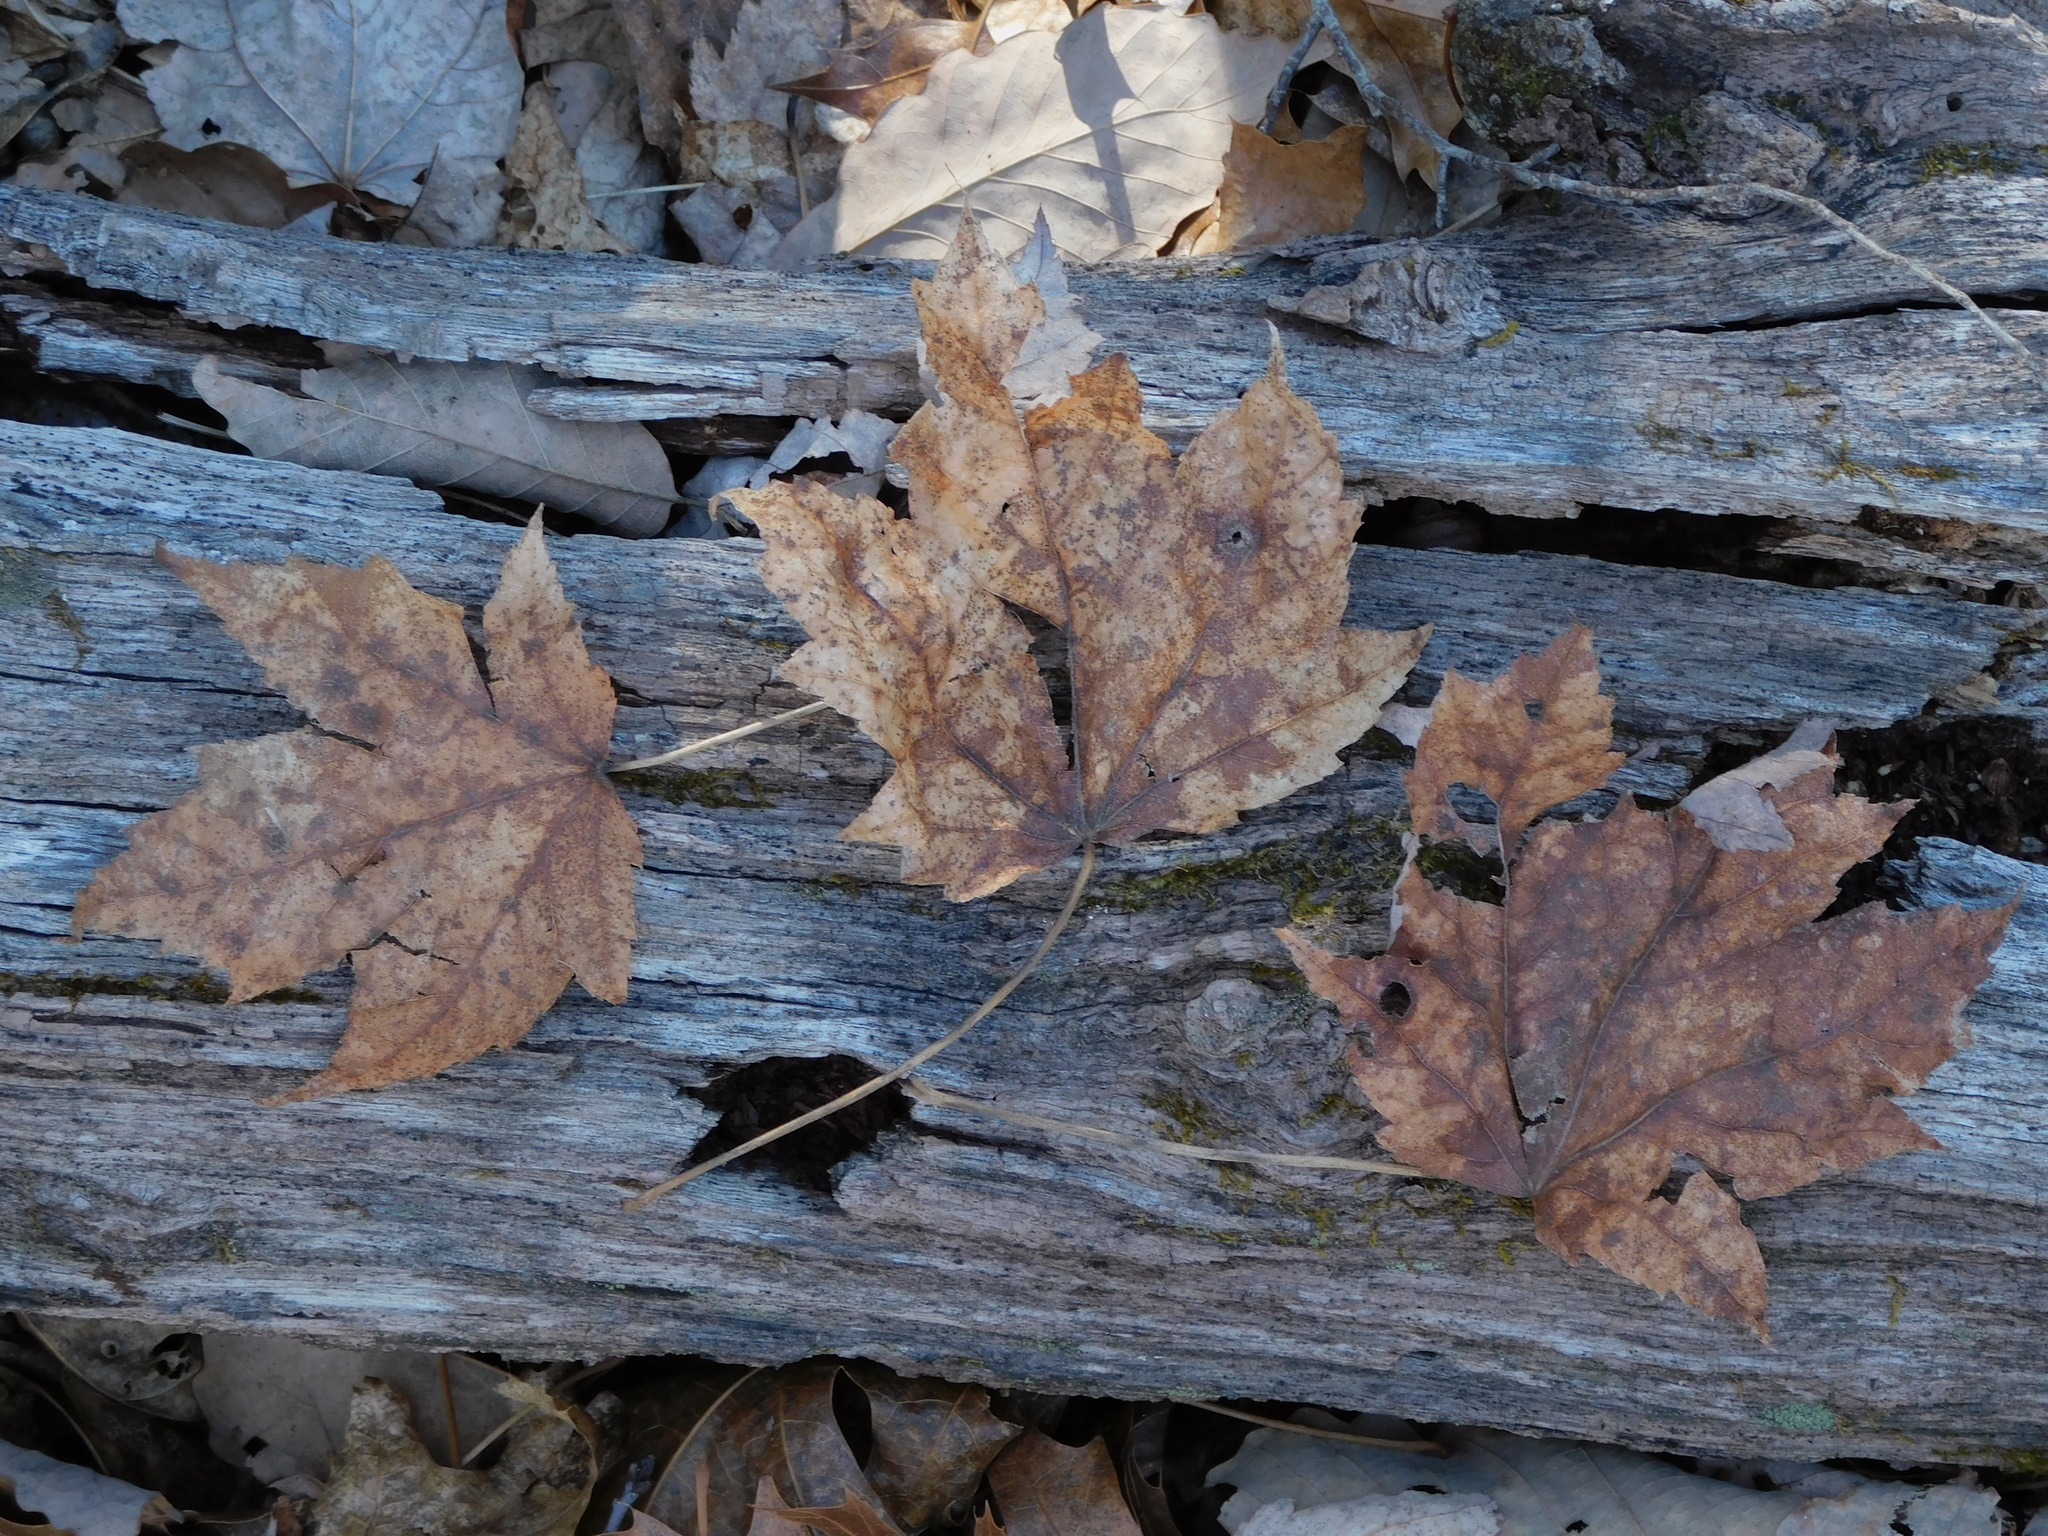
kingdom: Plantae
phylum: Tracheophyta
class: Magnoliopsida
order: Sapindales
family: Sapindaceae
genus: Acer
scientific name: Acer freemanii
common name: Freeman maple
